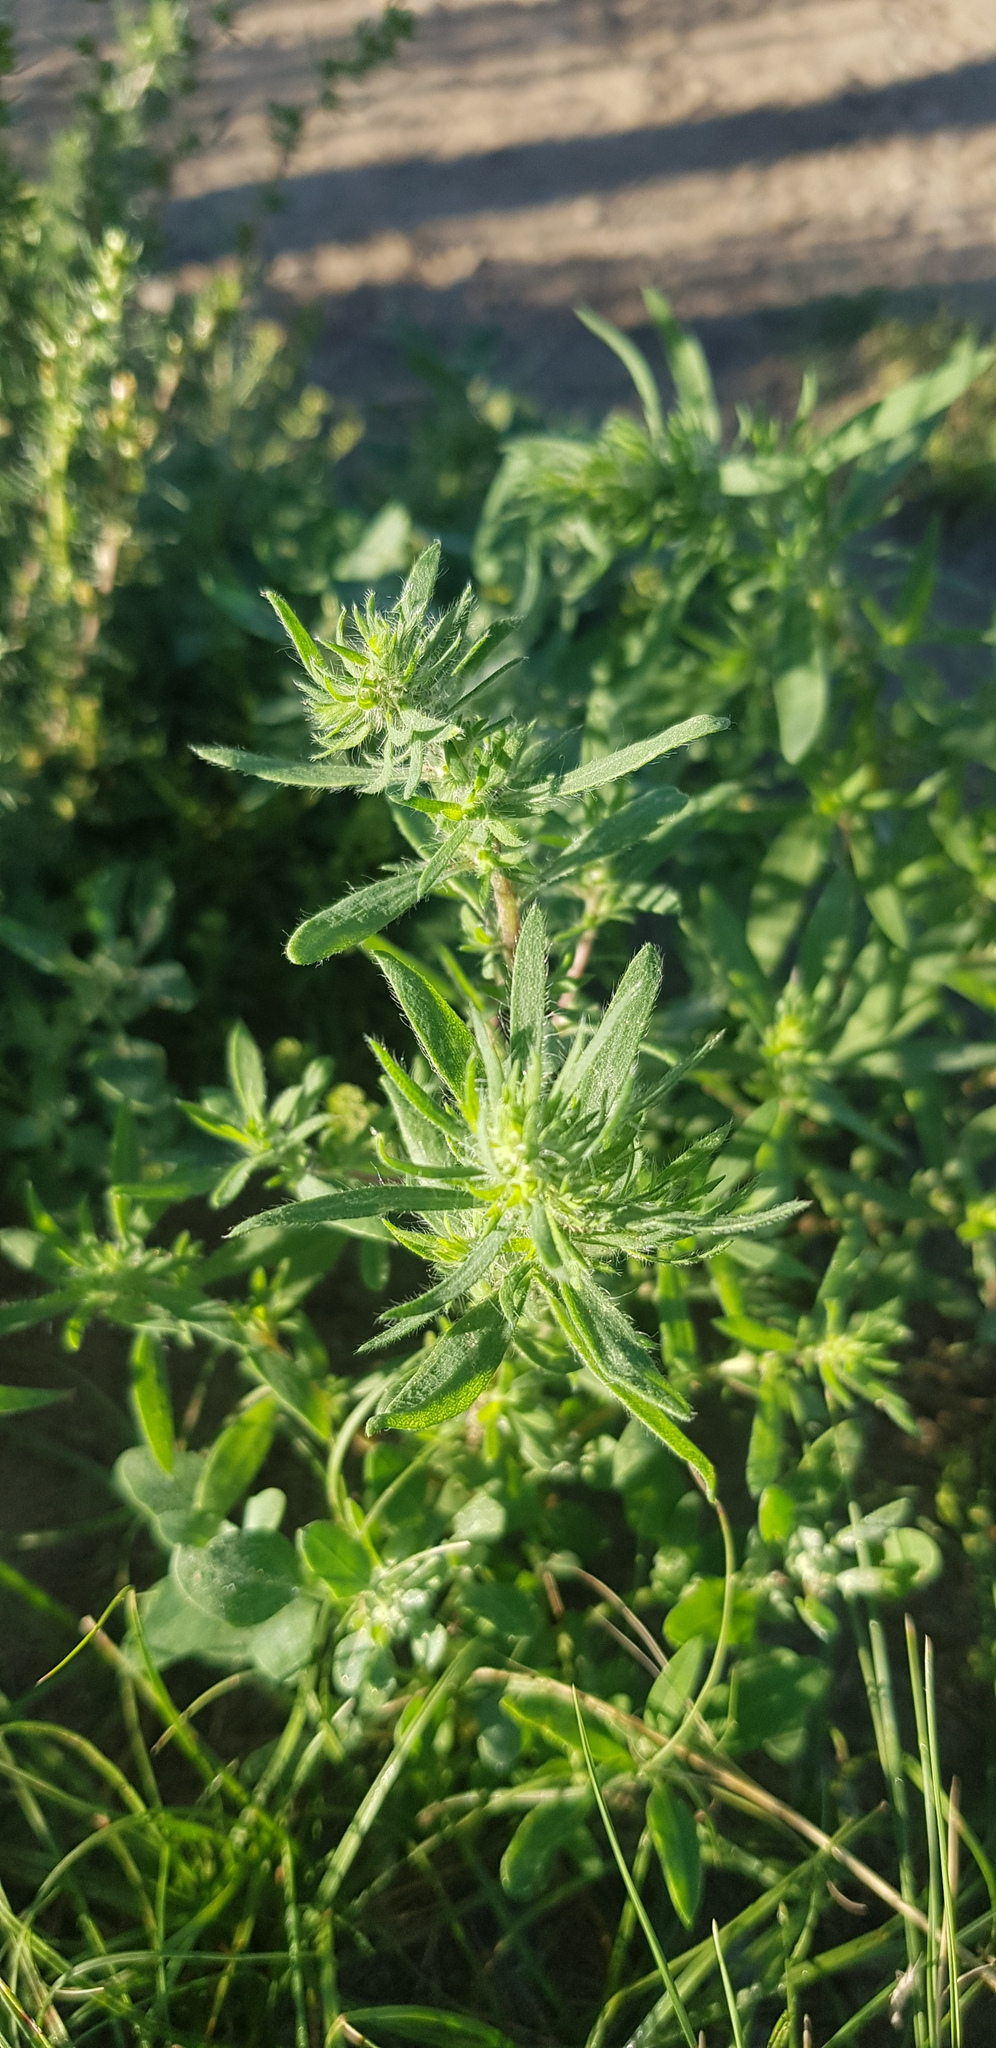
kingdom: Plantae
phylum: Tracheophyta
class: Magnoliopsida
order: Caryophyllales
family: Amaranthaceae
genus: Bassia
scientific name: Bassia scoparia
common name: Belvedere
